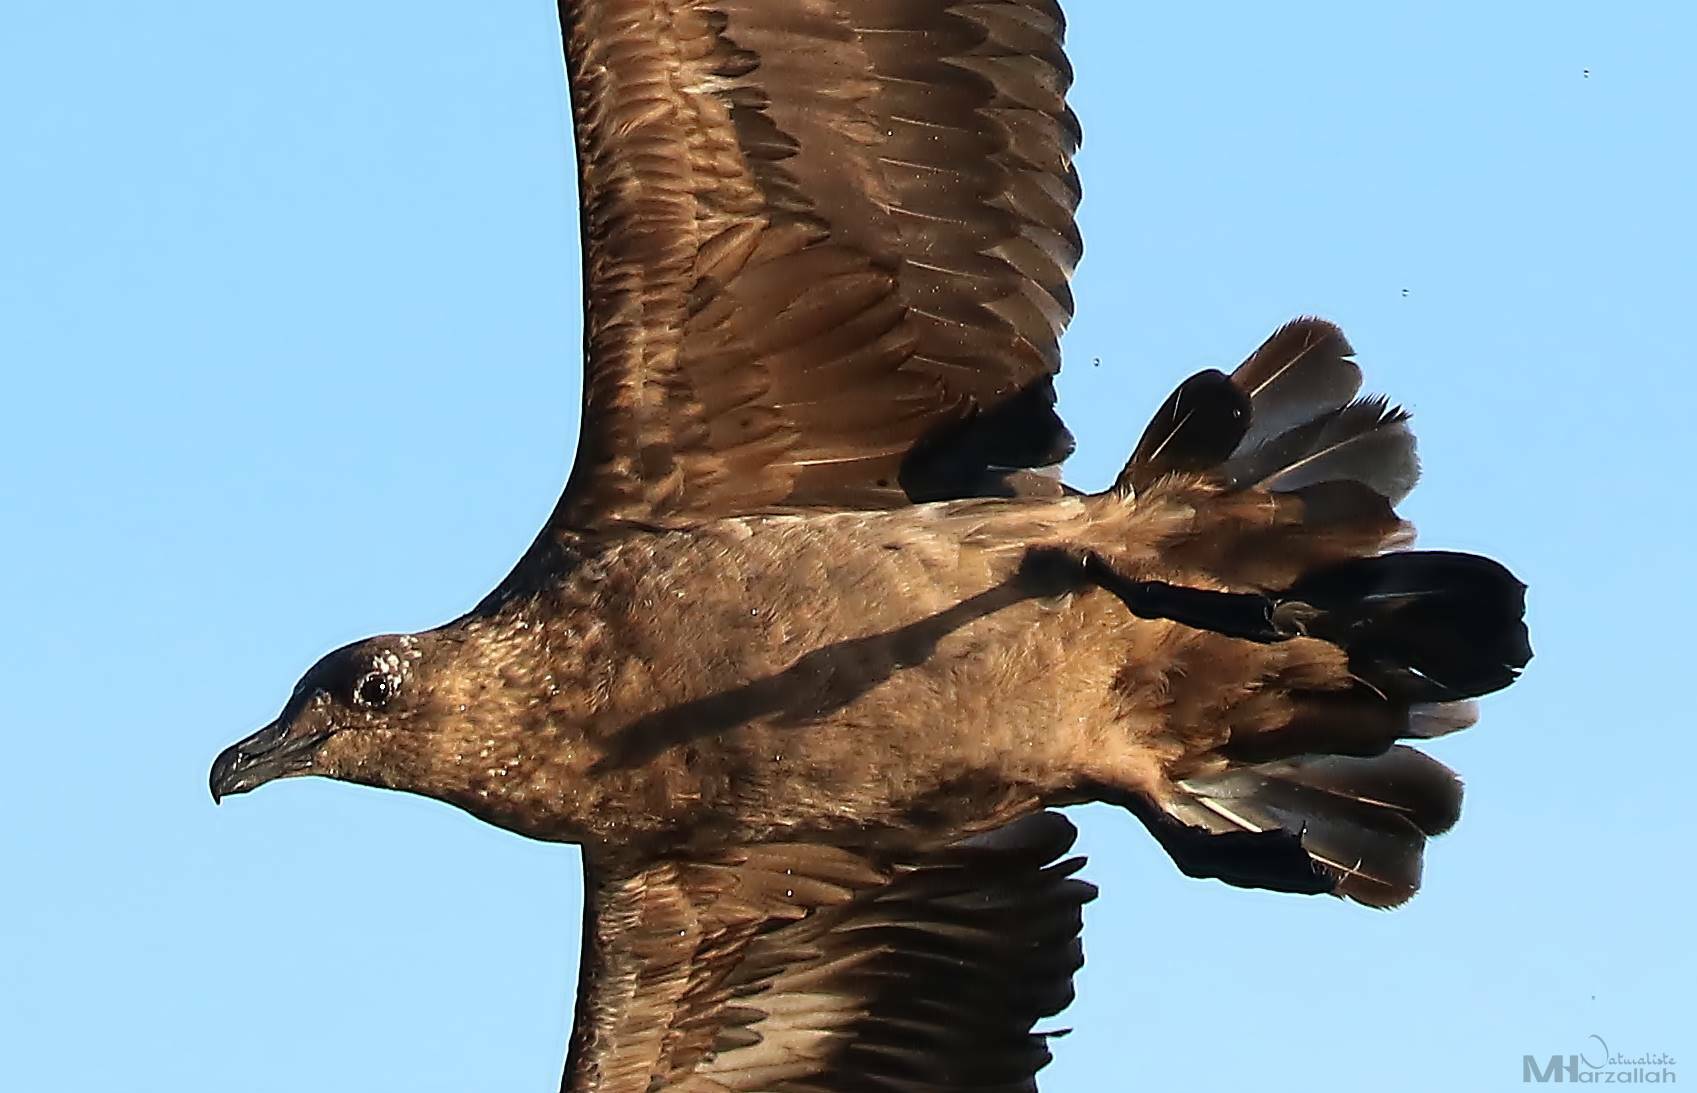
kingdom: Animalia
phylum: Chordata
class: Aves
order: Charadriiformes
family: Stercorariidae
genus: Stercorarius
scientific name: Stercorarius skua
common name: Great skua
